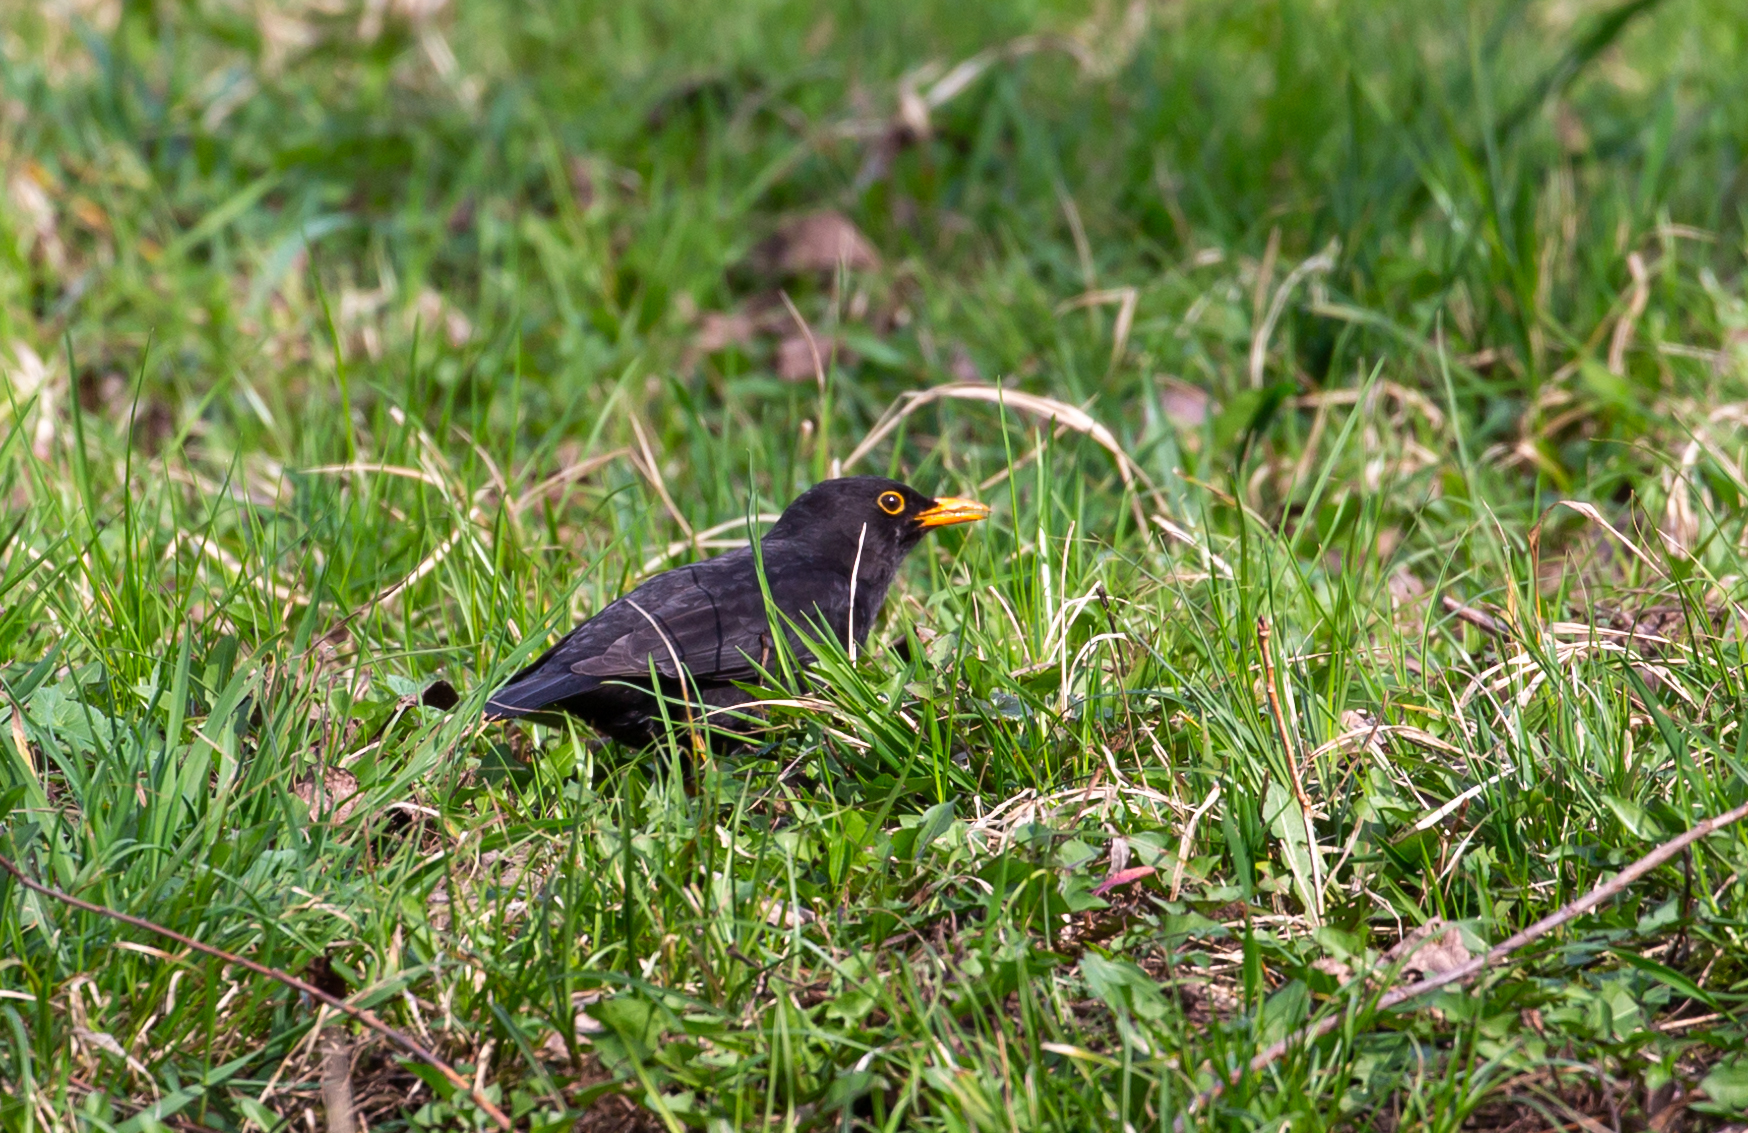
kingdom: Animalia
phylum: Chordata
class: Aves
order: Passeriformes
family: Turdidae
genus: Turdus
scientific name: Turdus merula
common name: Common blackbird
